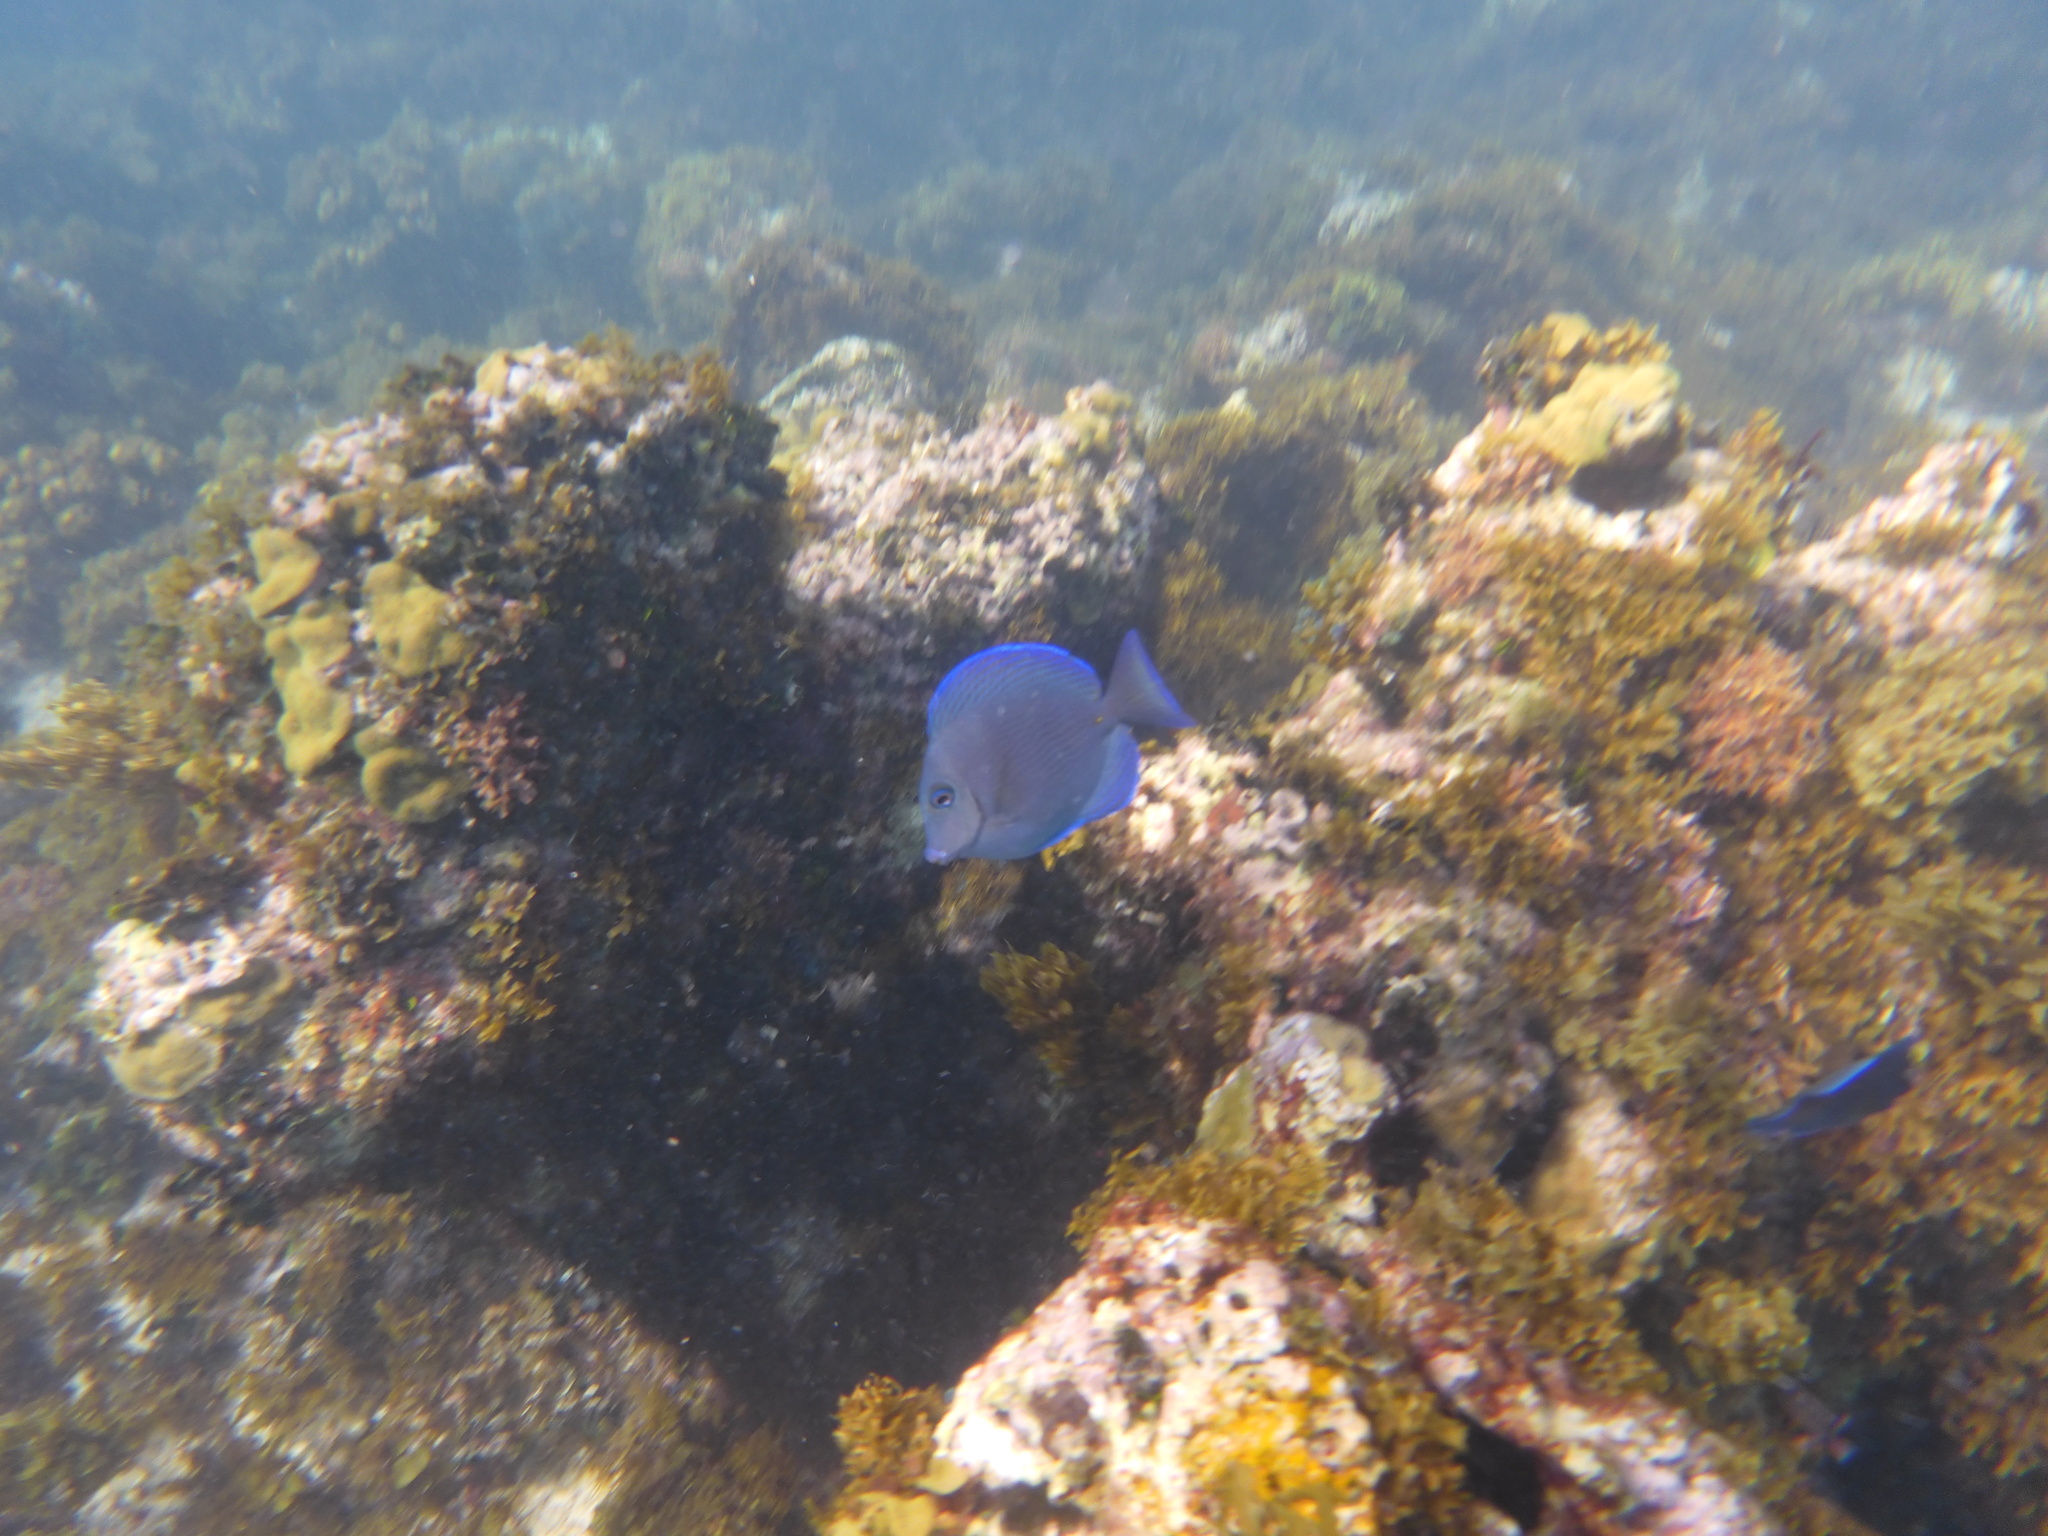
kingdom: Animalia
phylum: Chordata
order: Perciformes
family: Acanthuridae
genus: Acanthurus
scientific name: Acanthurus coeruleus
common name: Blue tang
